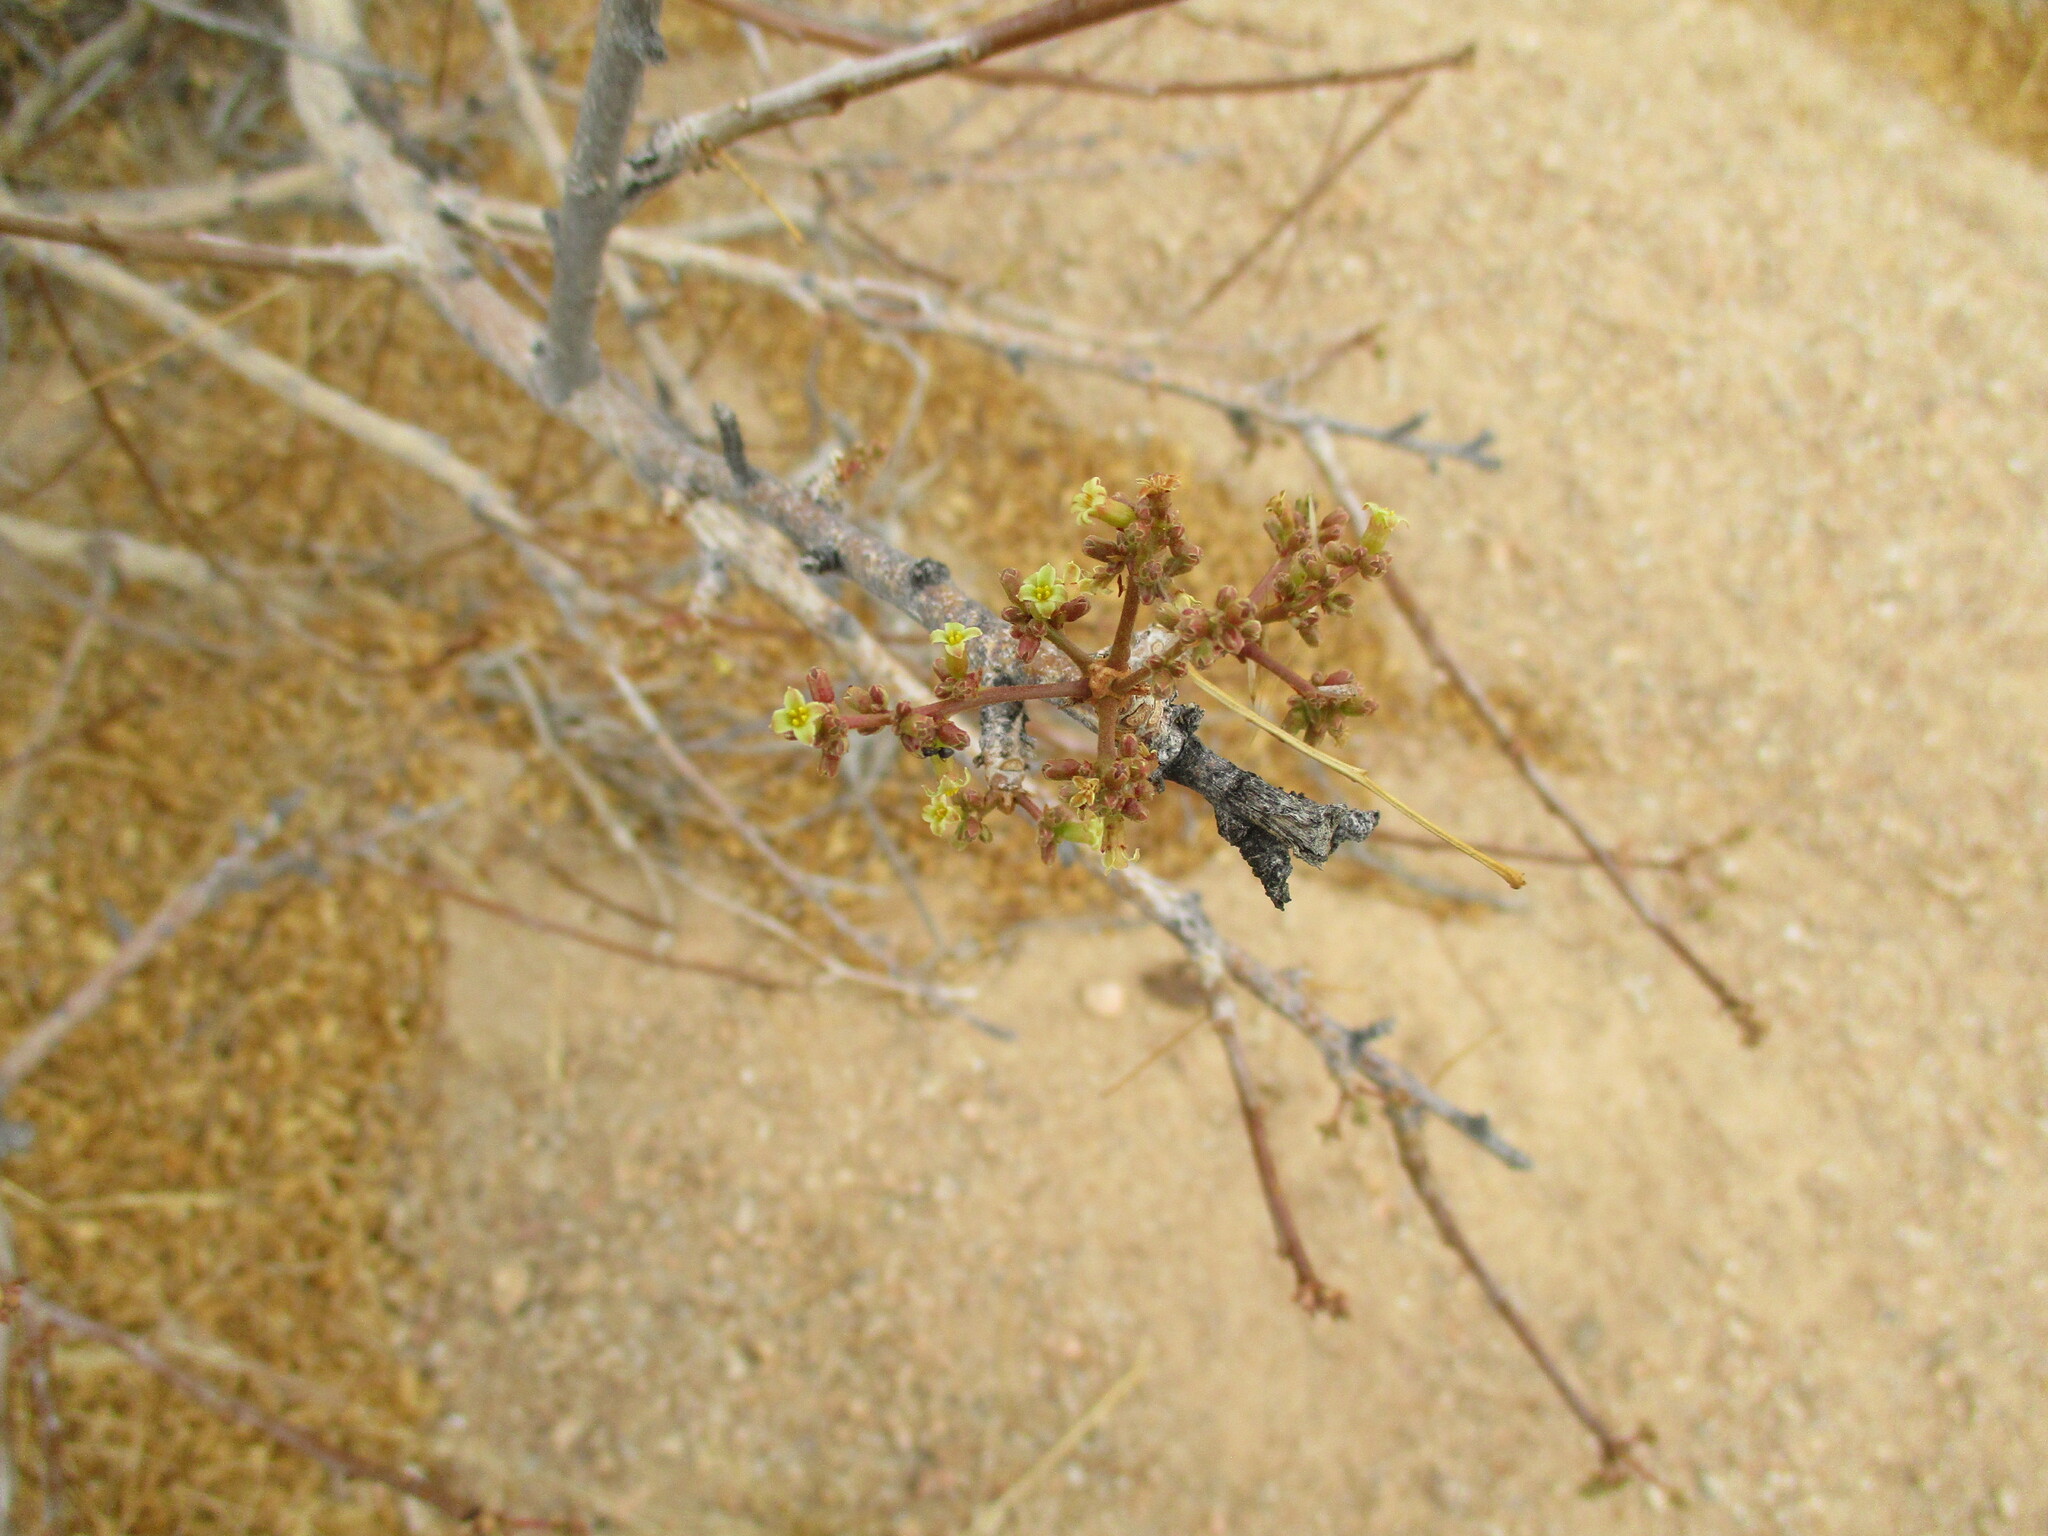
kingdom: Plantae
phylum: Tracheophyta
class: Magnoliopsida
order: Sapindales
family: Burseraceae
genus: Commiphora
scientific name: Commiphora saxicola
